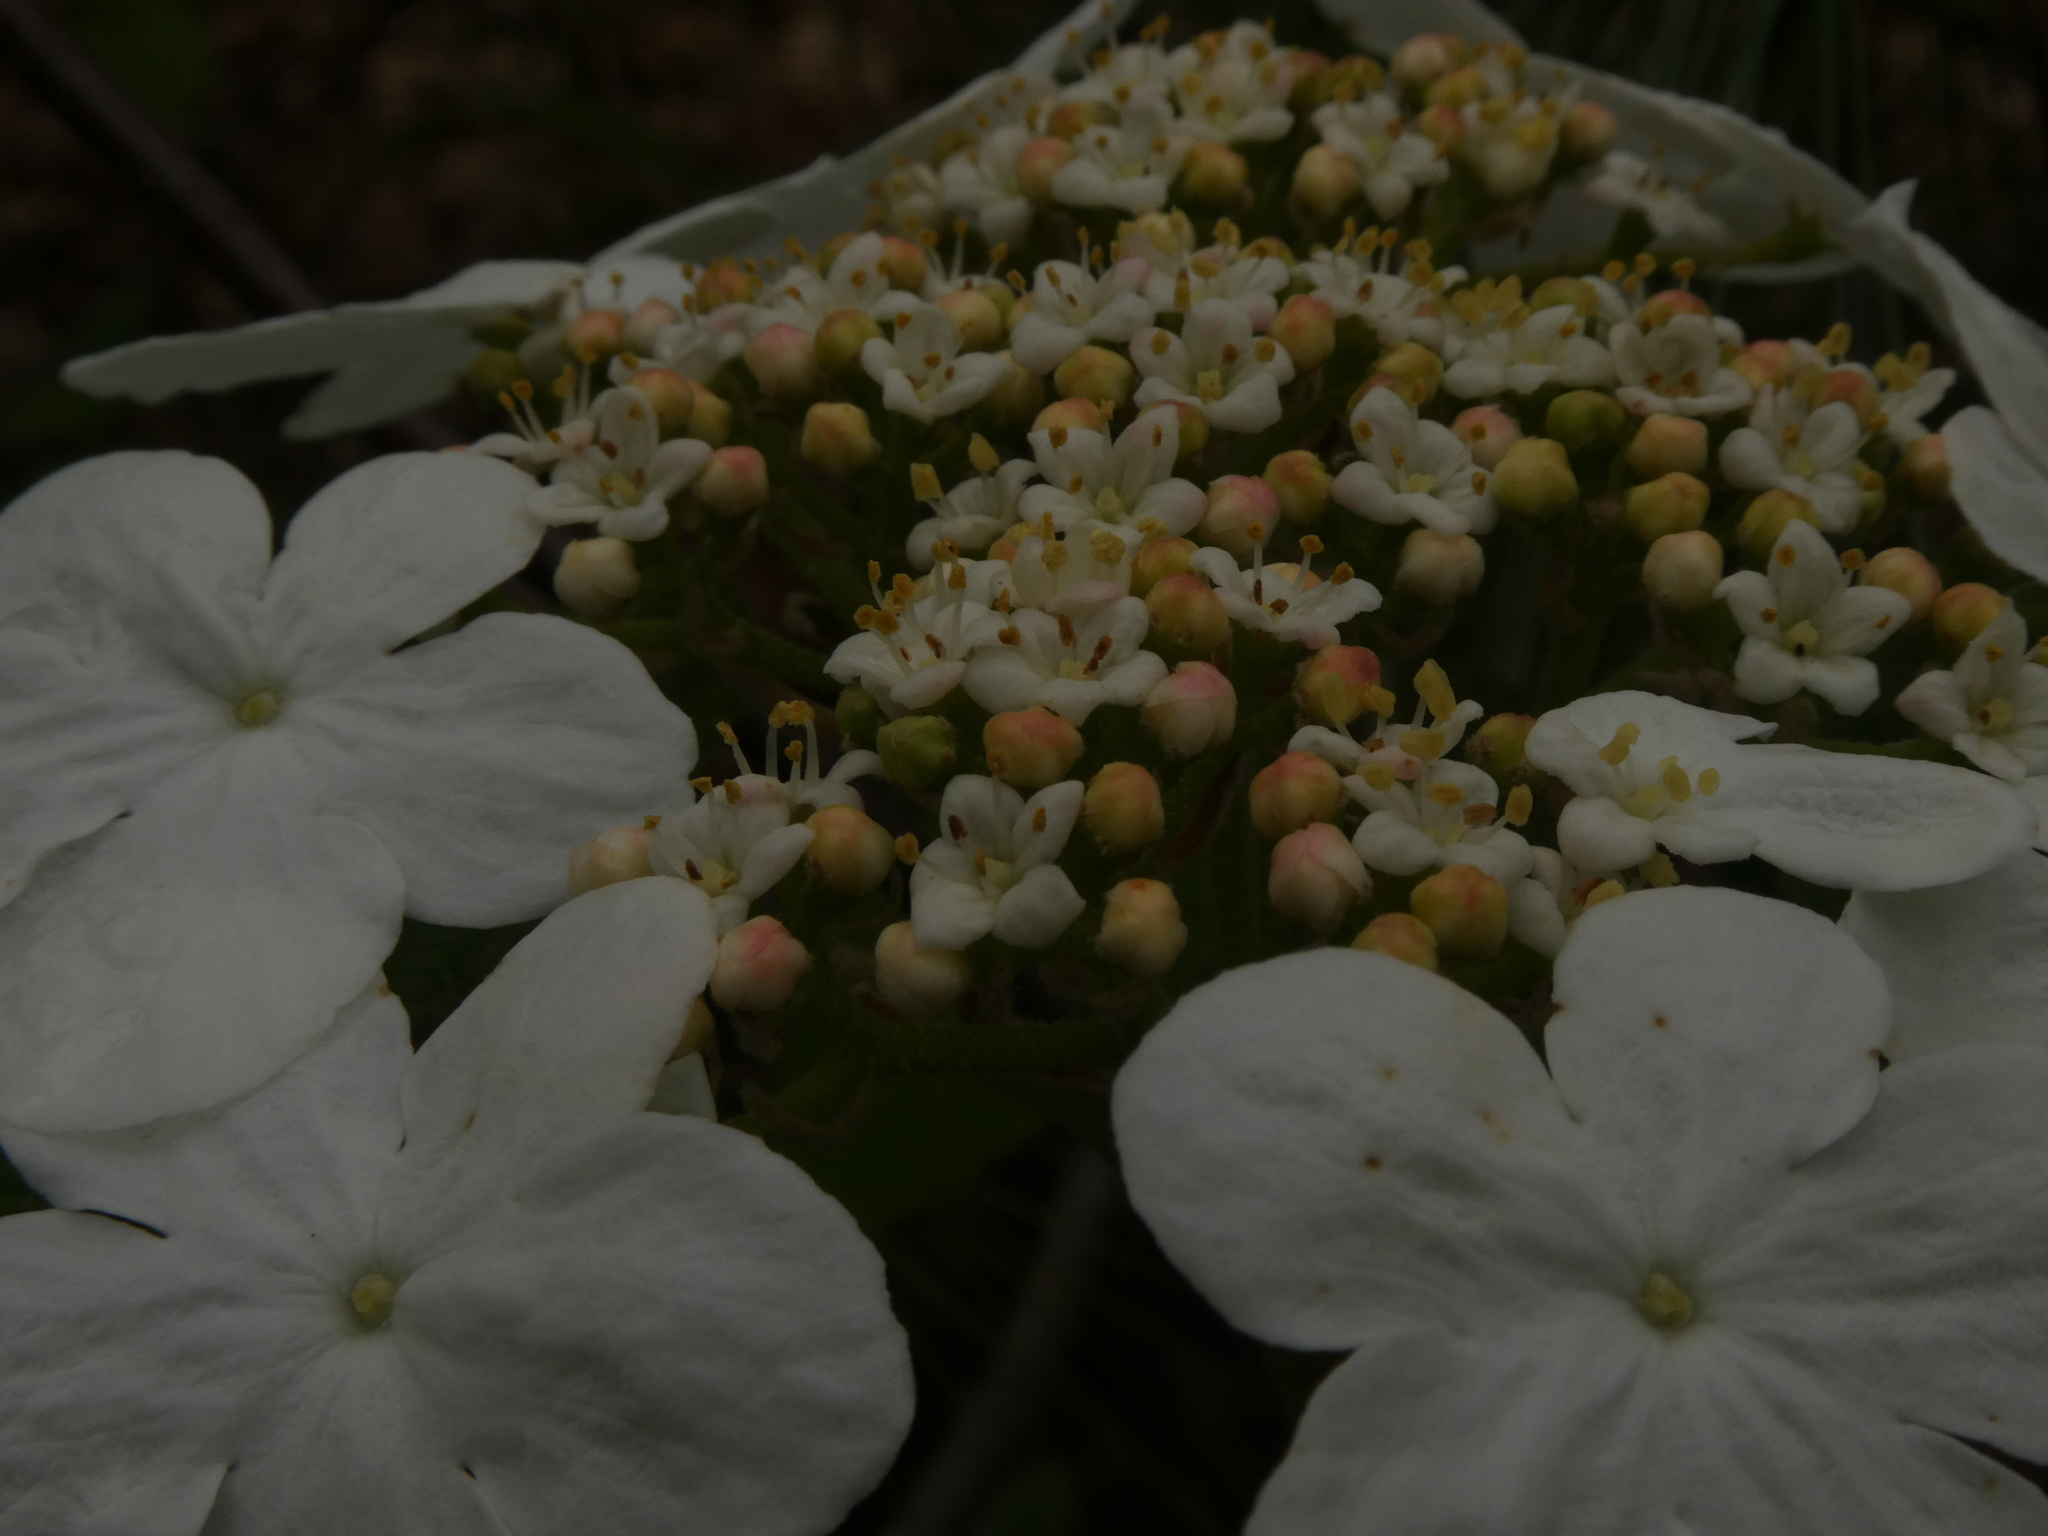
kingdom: Plantae
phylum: Tracheophyta
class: Magnoliopsida
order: Dipsacales
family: Viburnaceae
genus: Viburnum
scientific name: Viburnum lantanoides
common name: Hobblebush
